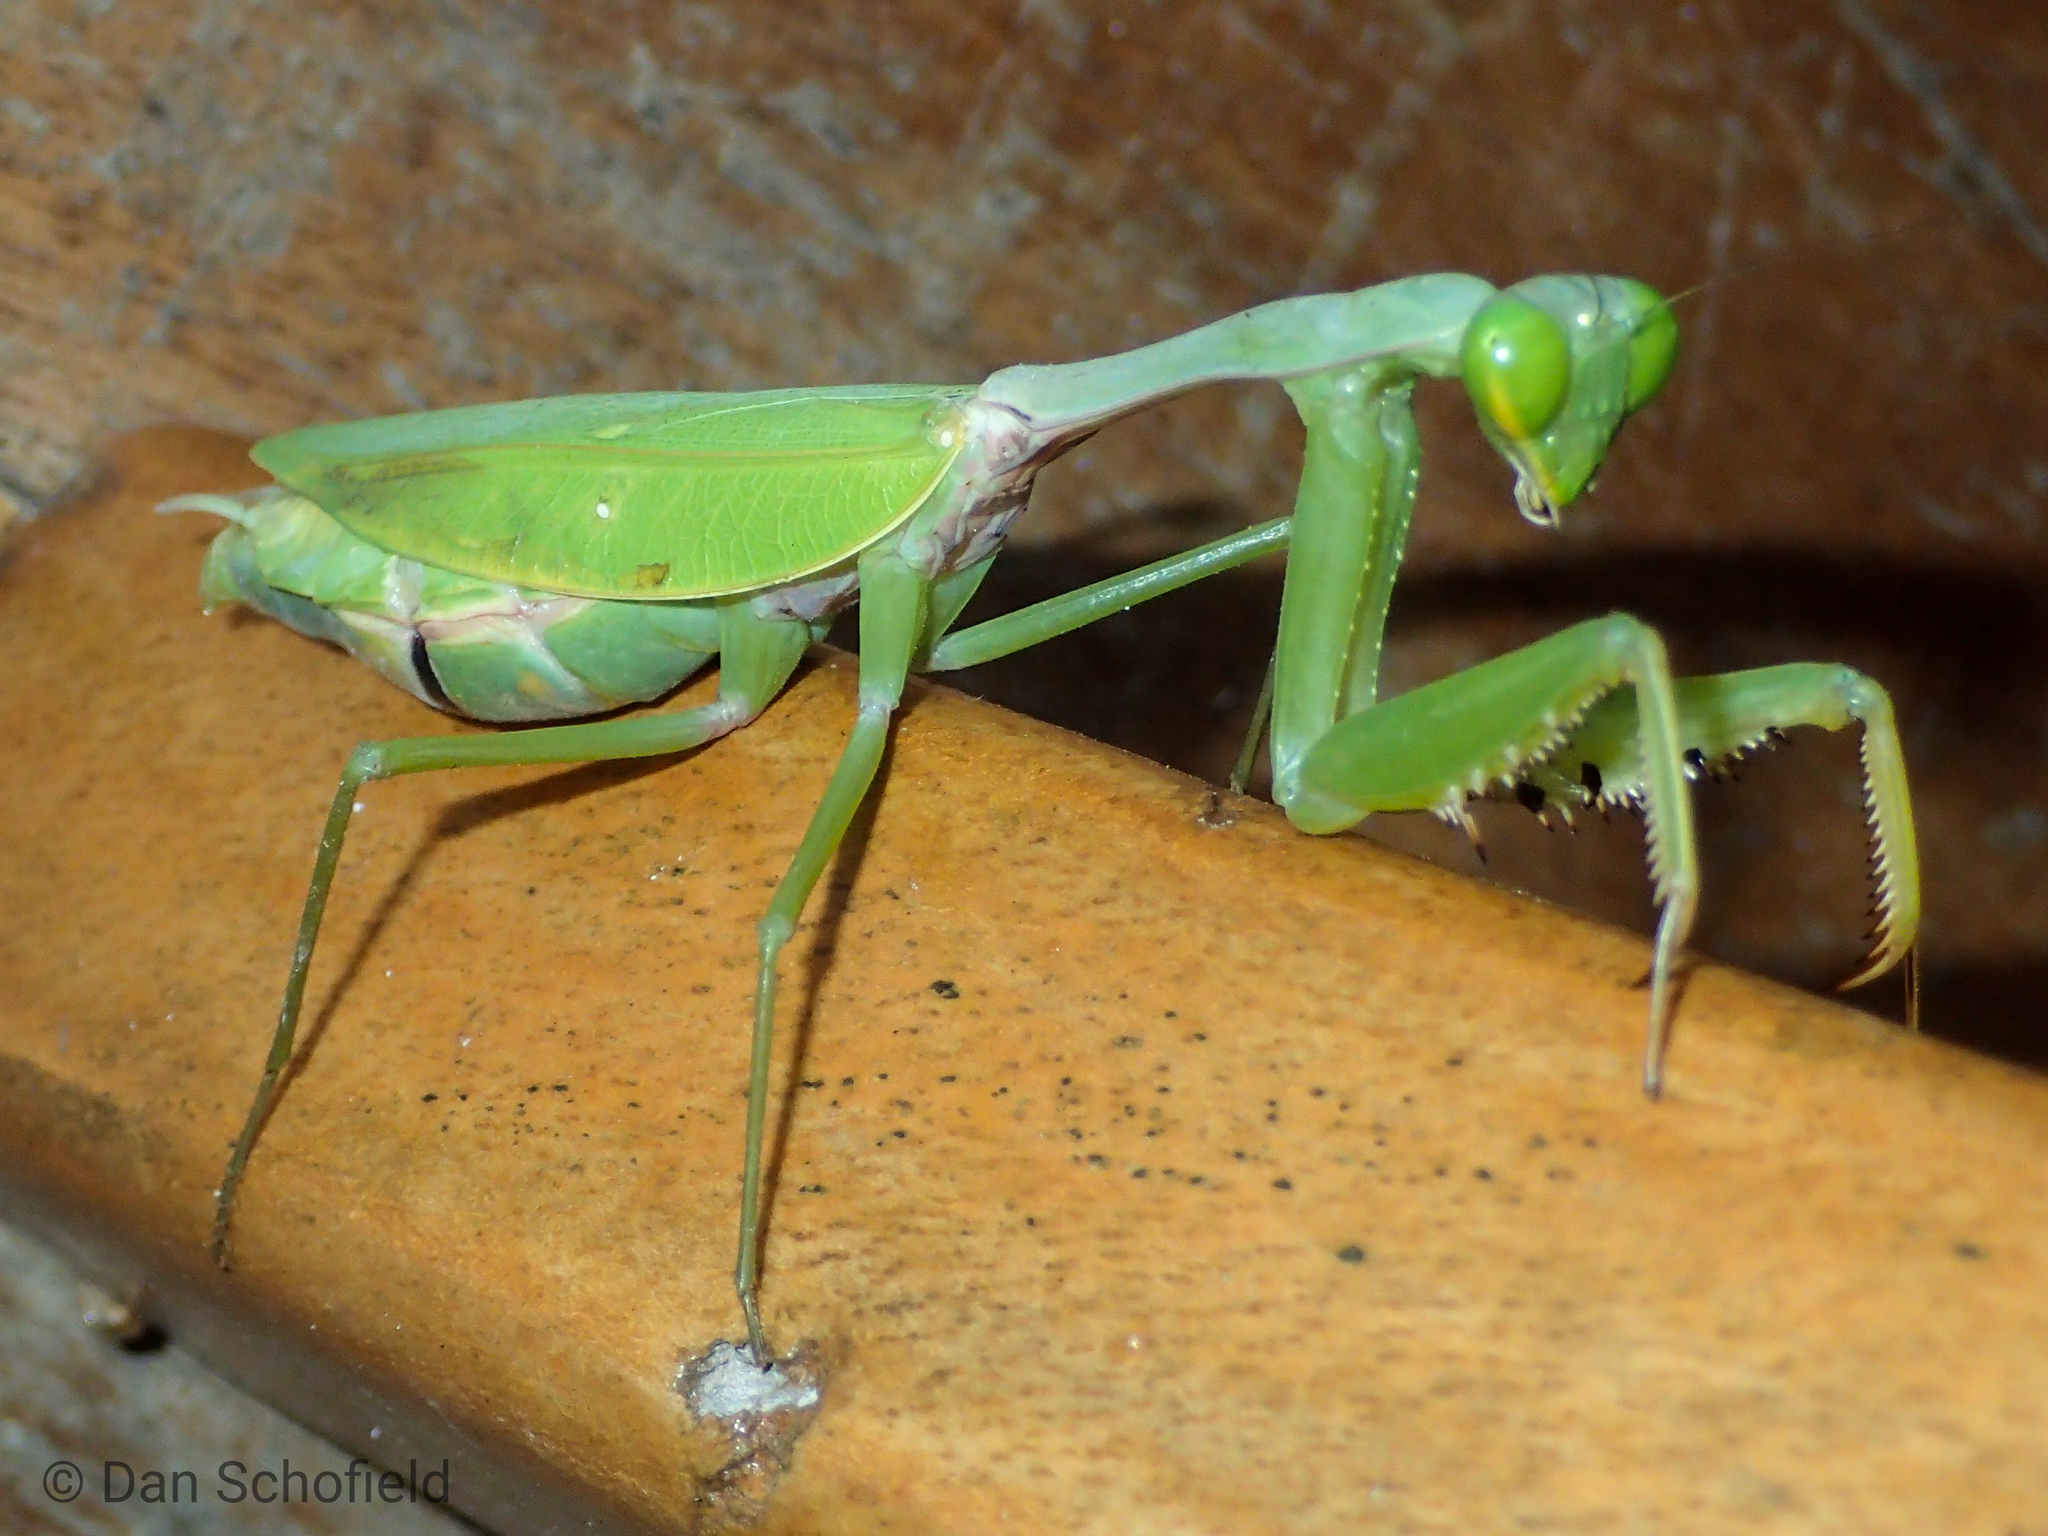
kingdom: Animalia
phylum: Arthropoda
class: Insecta
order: Mantodea
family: Mantidae
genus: Hierodula
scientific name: Hierodula purpurescens
